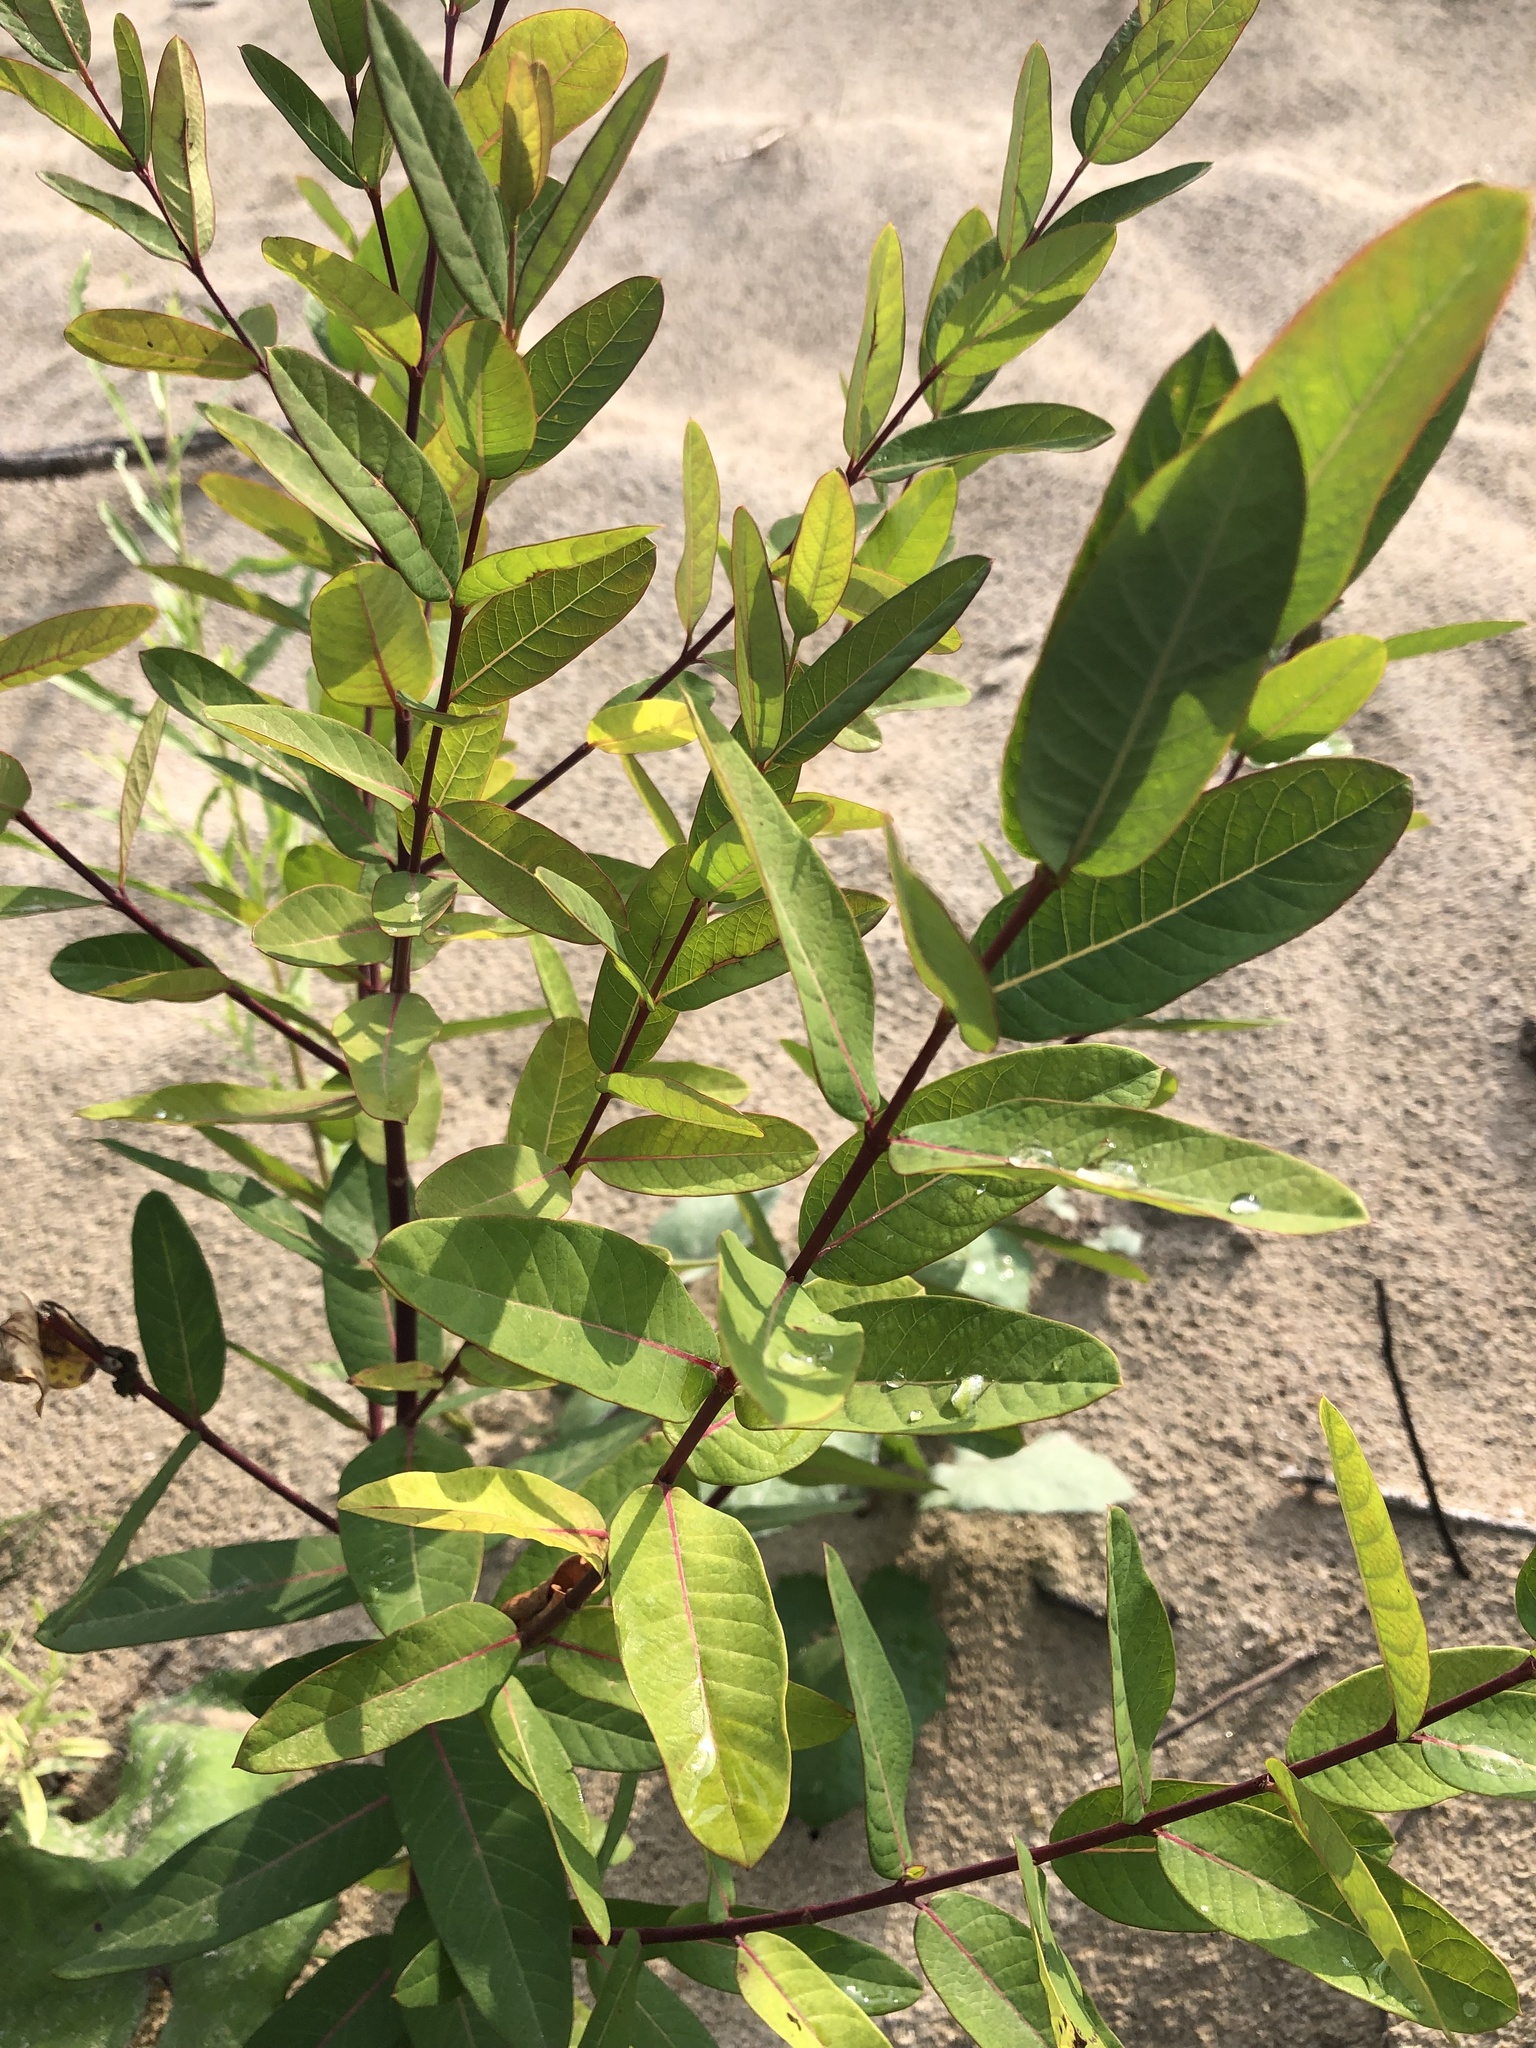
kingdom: Plantae
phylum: Tracheophyta
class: Magnoliopsida
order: Gentianales
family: Apocynaceae
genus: Apocynum
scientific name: Apocynum cannabinum
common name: Hemp dogbane
